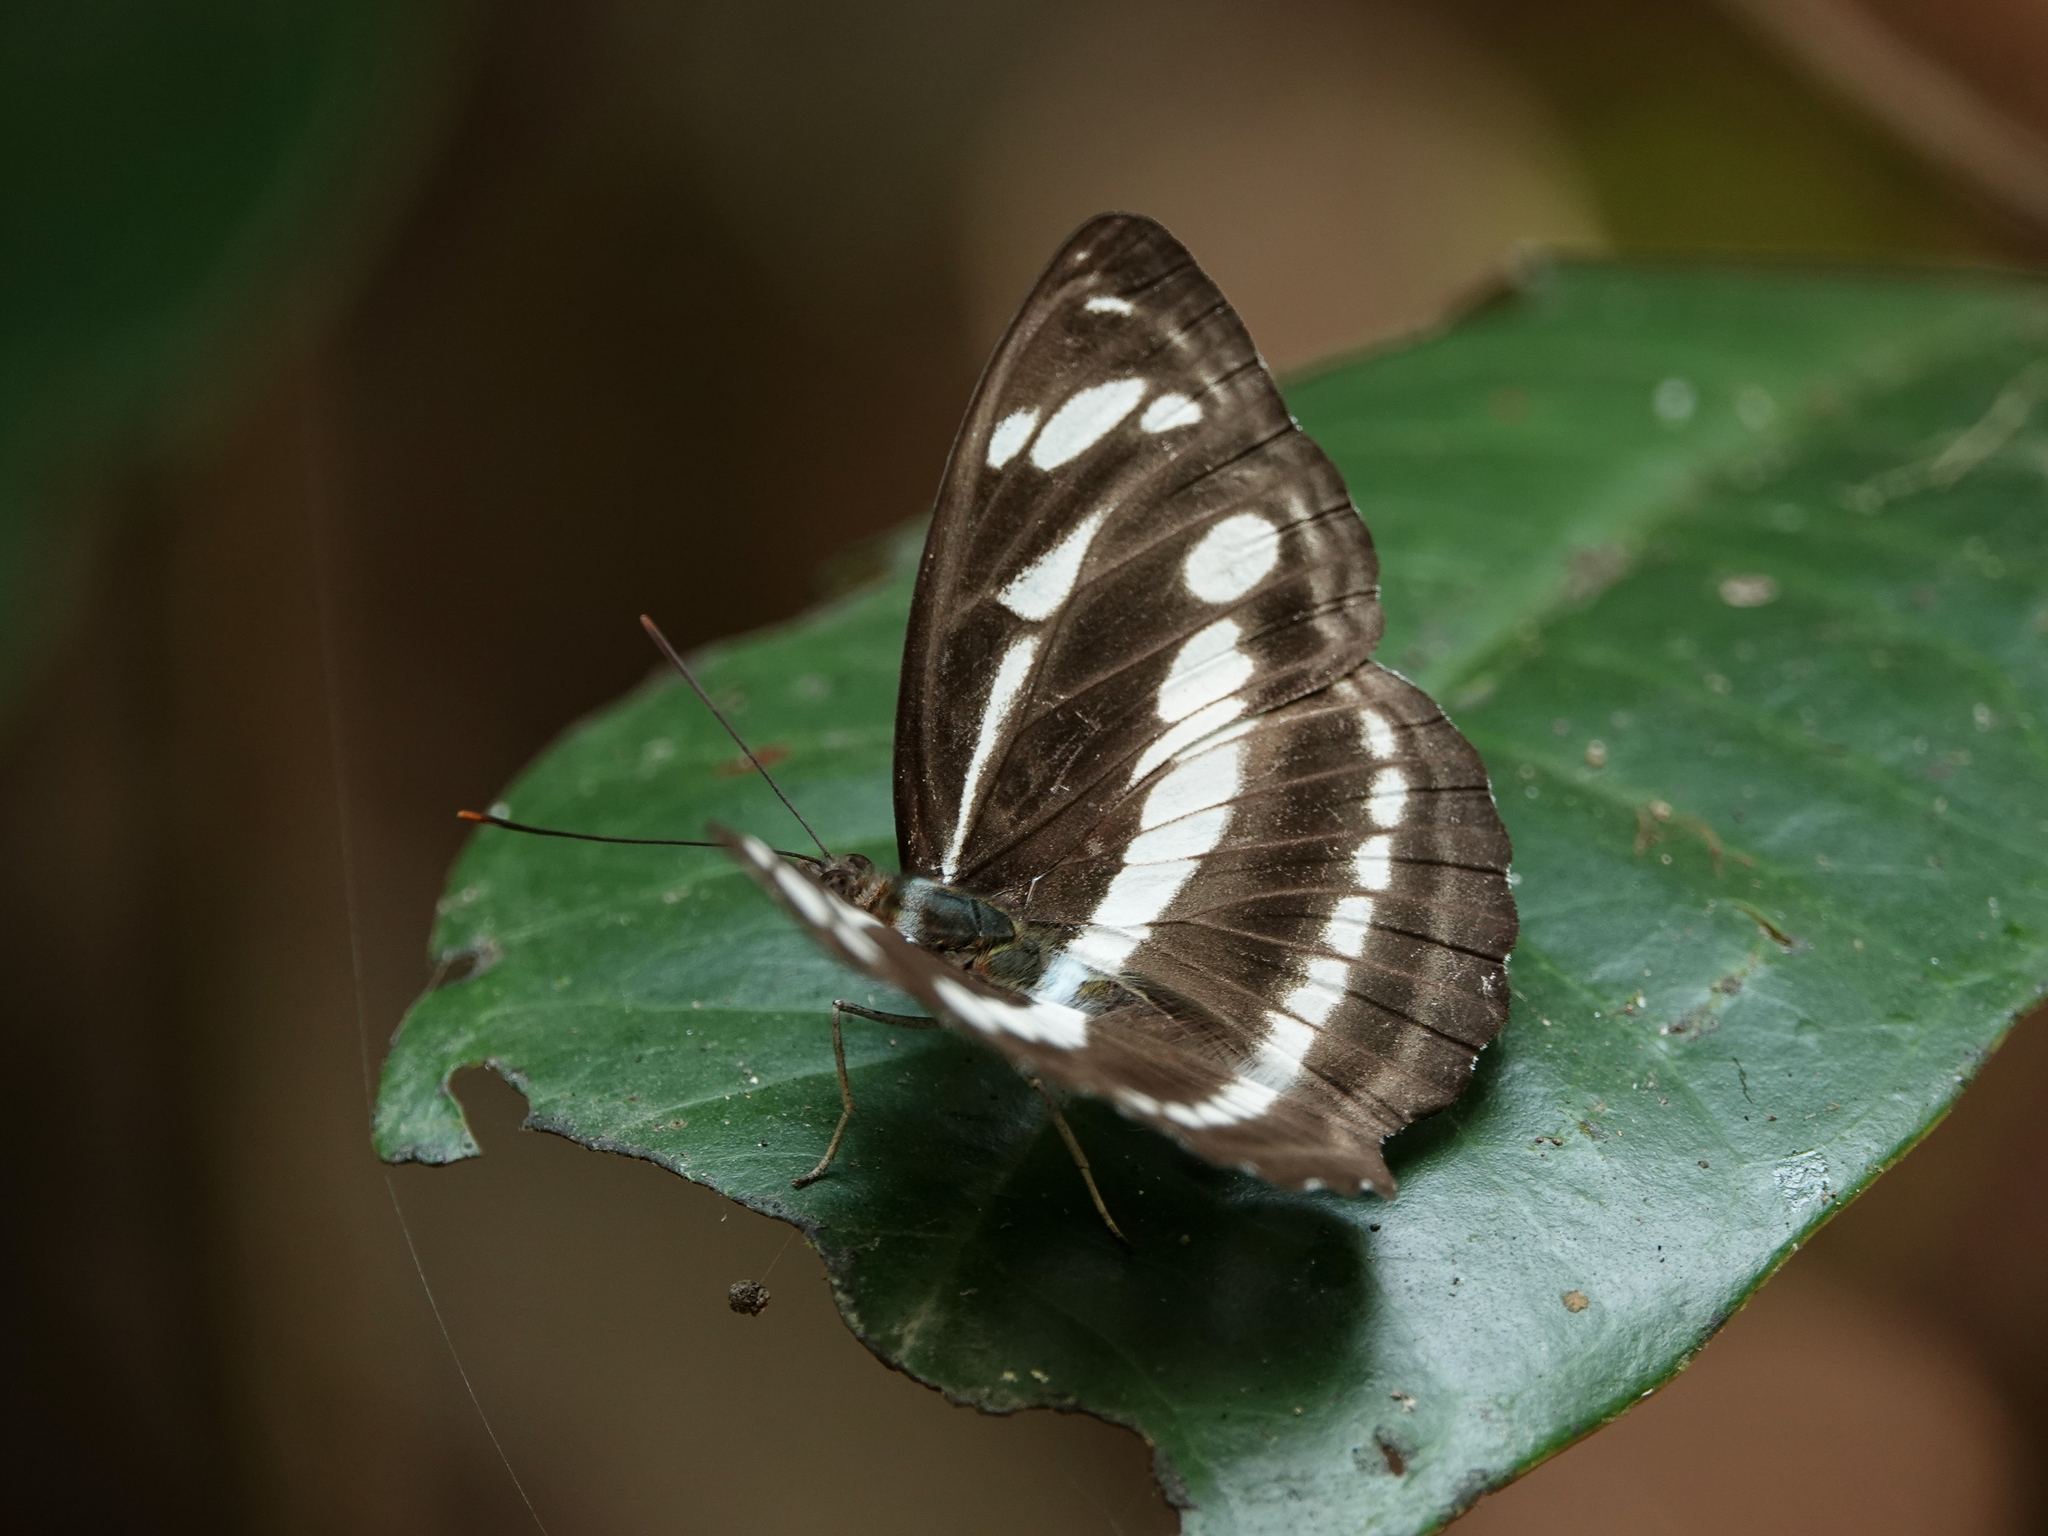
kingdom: Animalia
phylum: Arthropoda
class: Insecta
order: Lepidoptera
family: Nymphalidae
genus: Parathyma
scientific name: Parathyma kanwa
